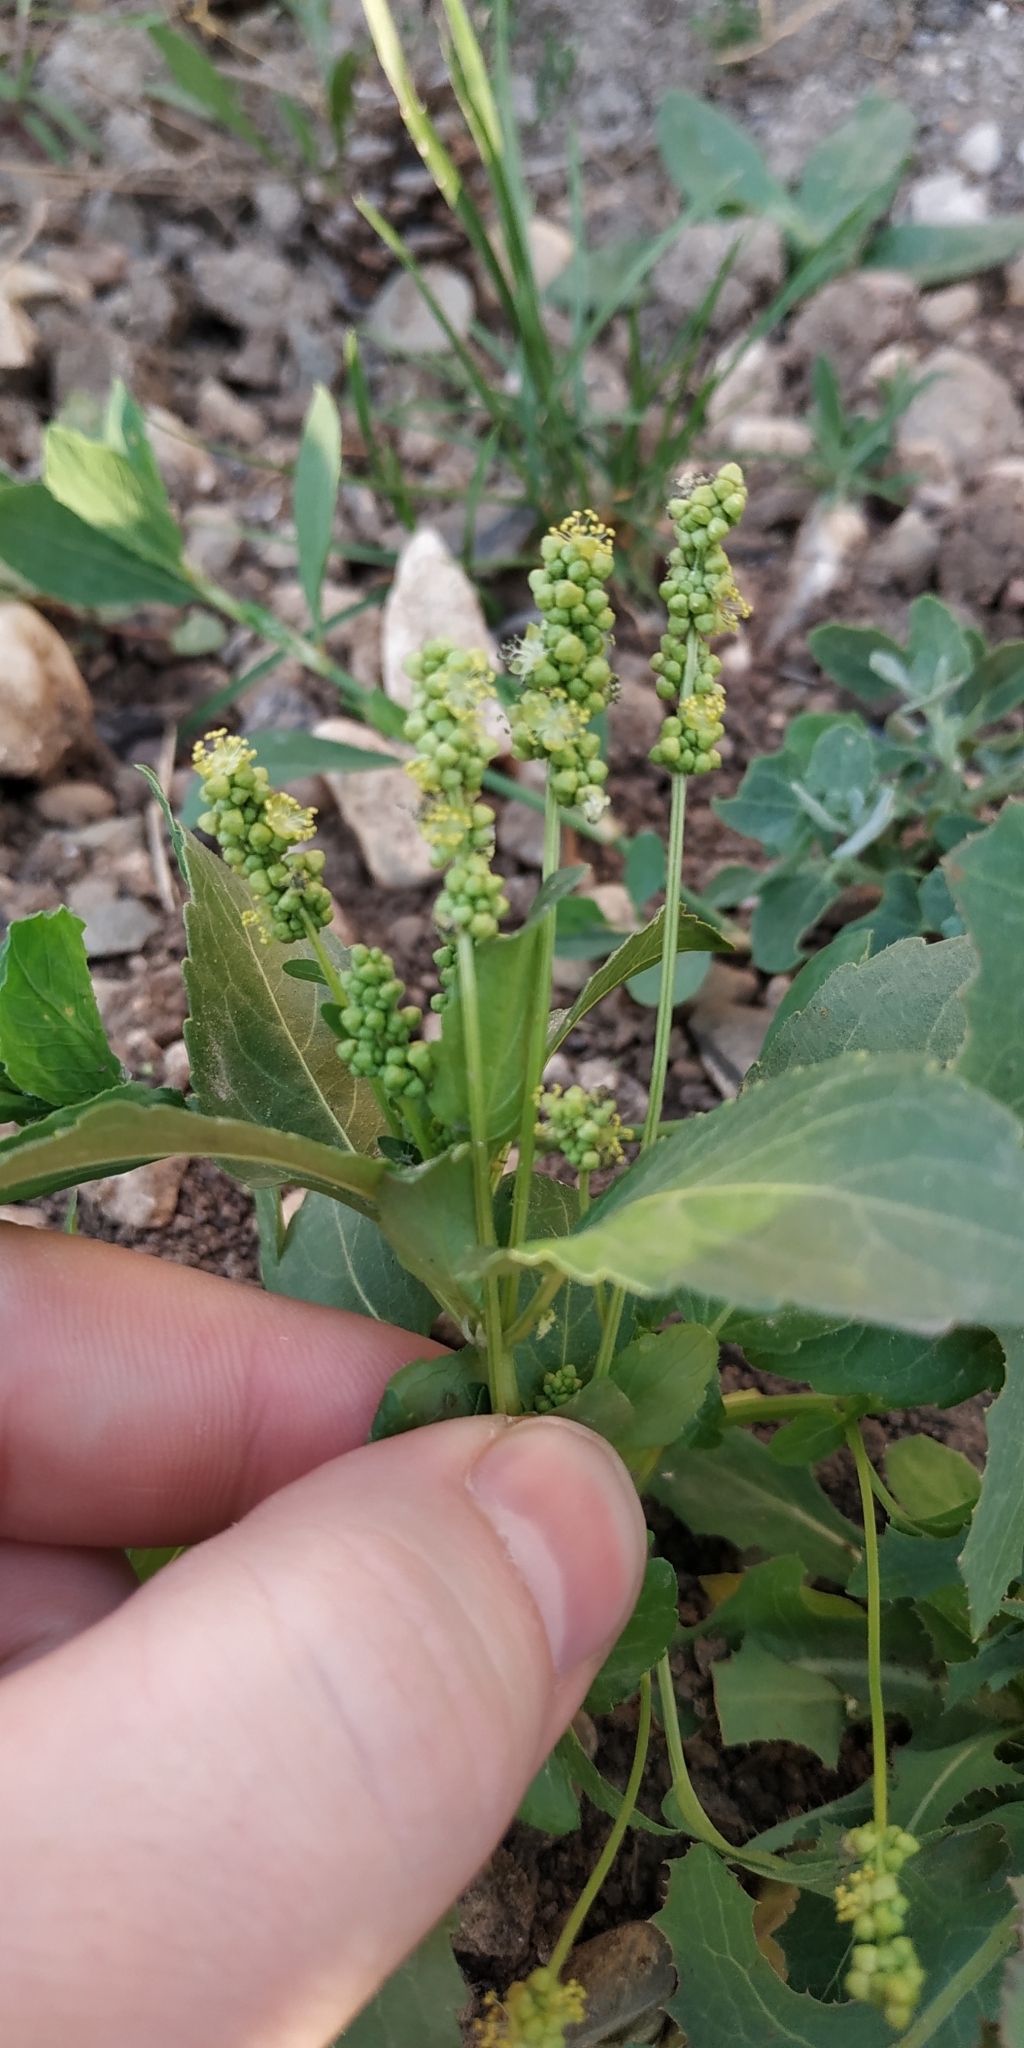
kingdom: Plantae
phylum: Tracheophyta
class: Magnoliopsida
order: Malpighiales
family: Euphorbiaceae
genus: Mercurialis
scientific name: Mercurialis annua
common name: Annual mercury
